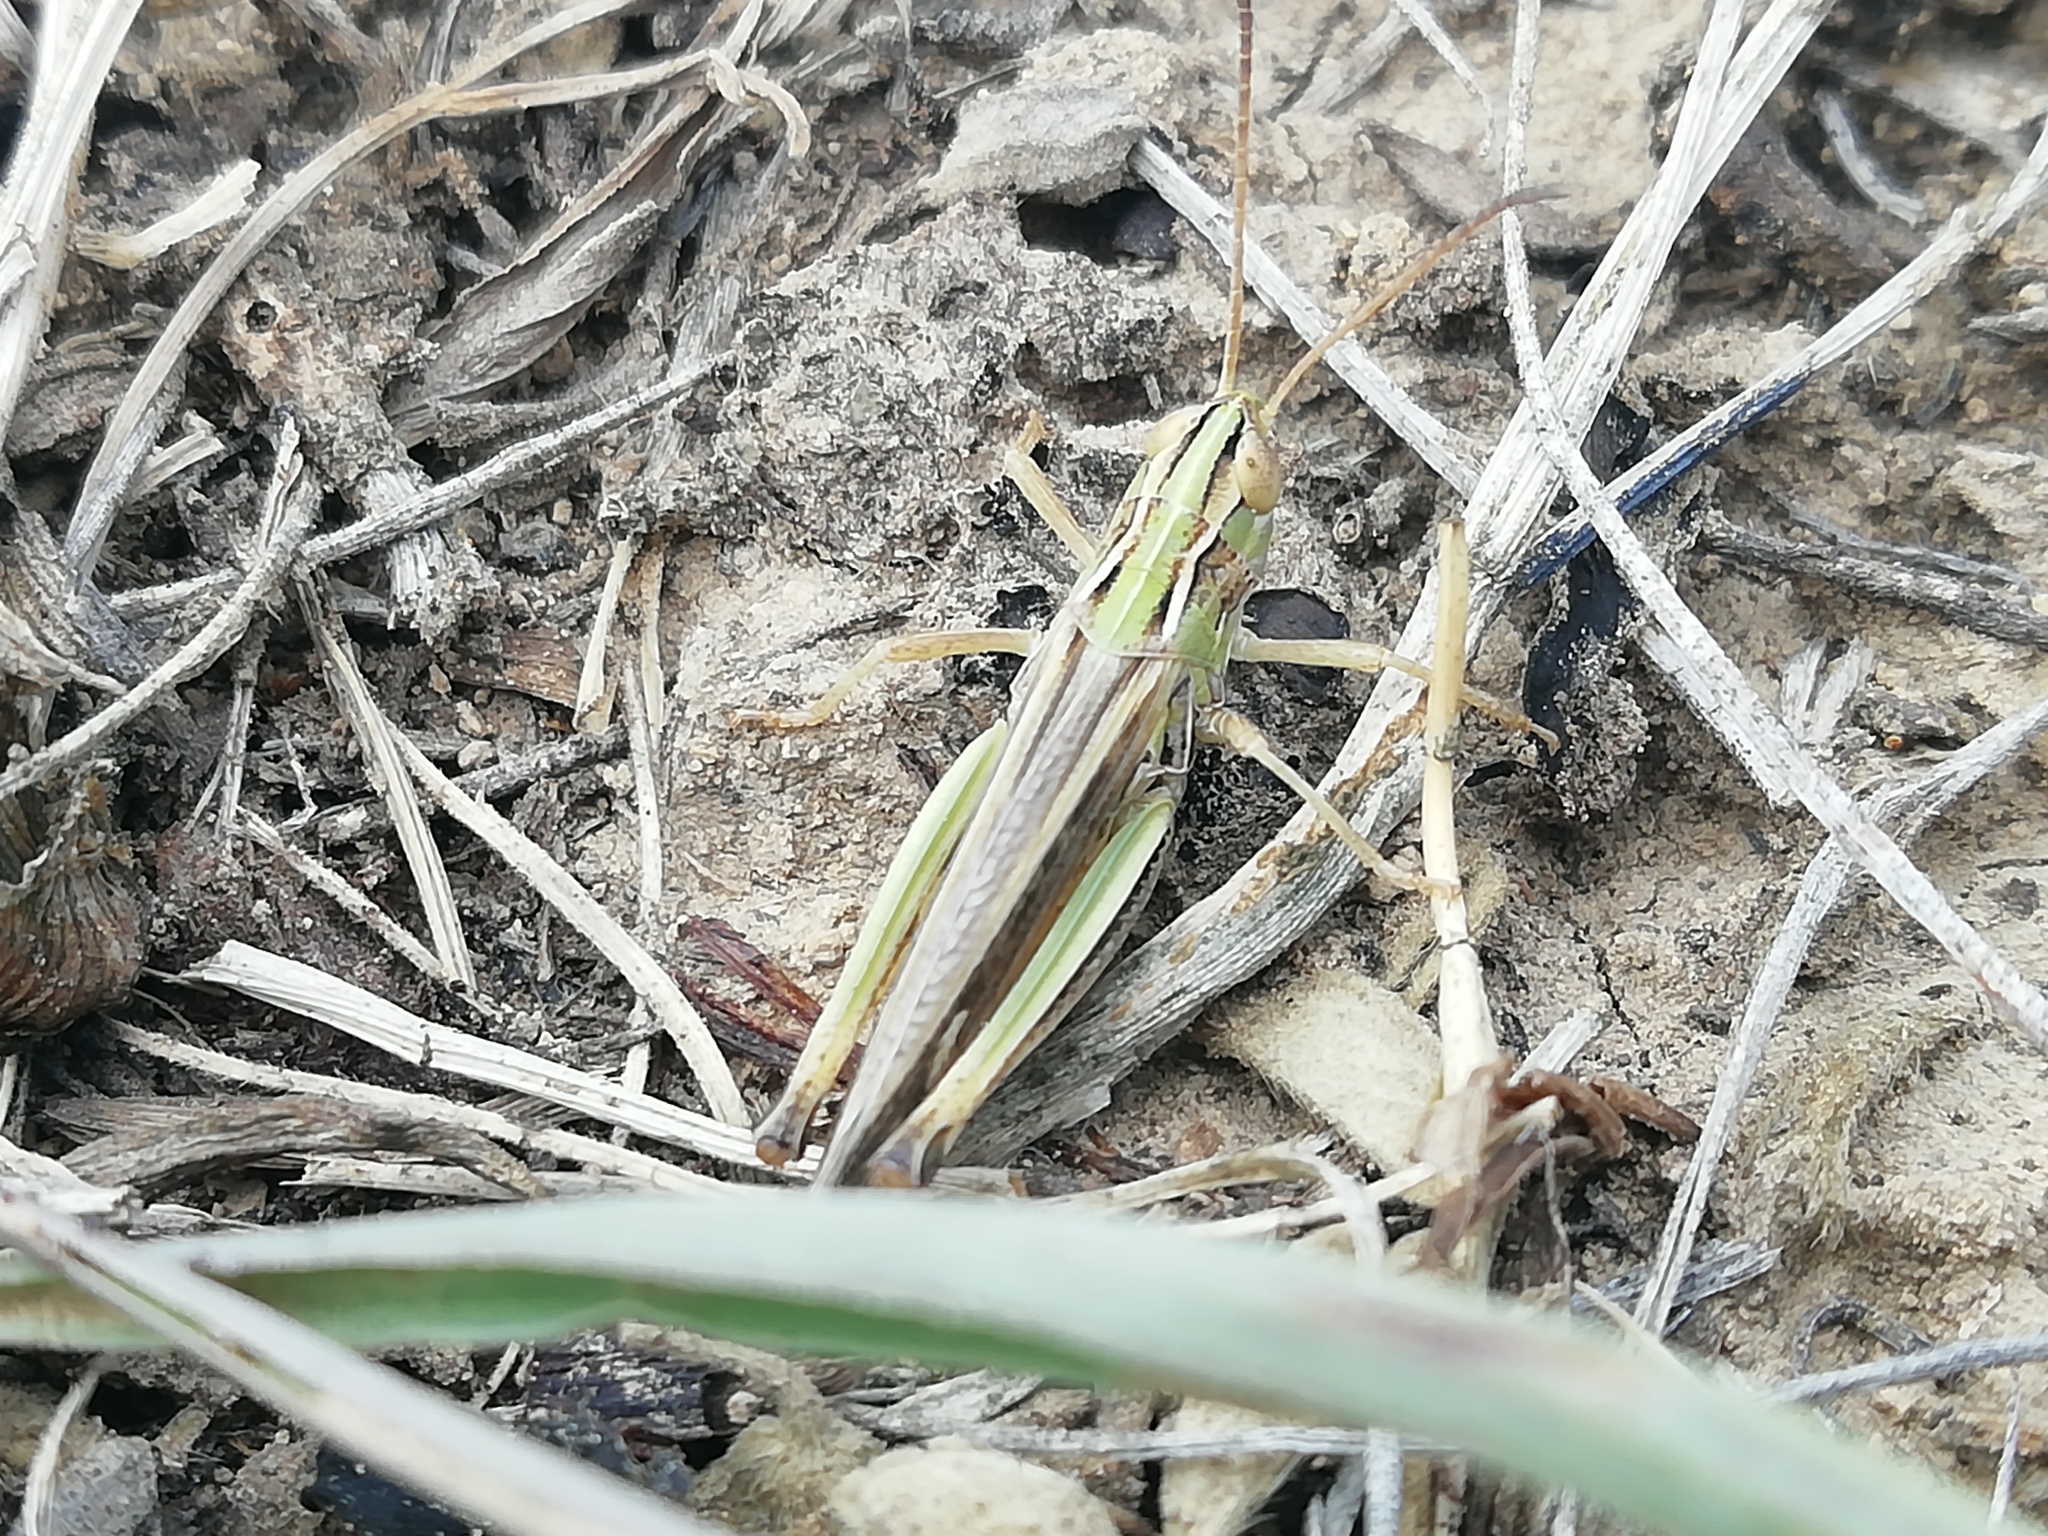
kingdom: Animalia
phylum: Arthropoda
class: Insecta
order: Orthoptera
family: Acrididae
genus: Stenobothrus
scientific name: Stenobothrus eurasius
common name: Eurasian toothed grasshopper
